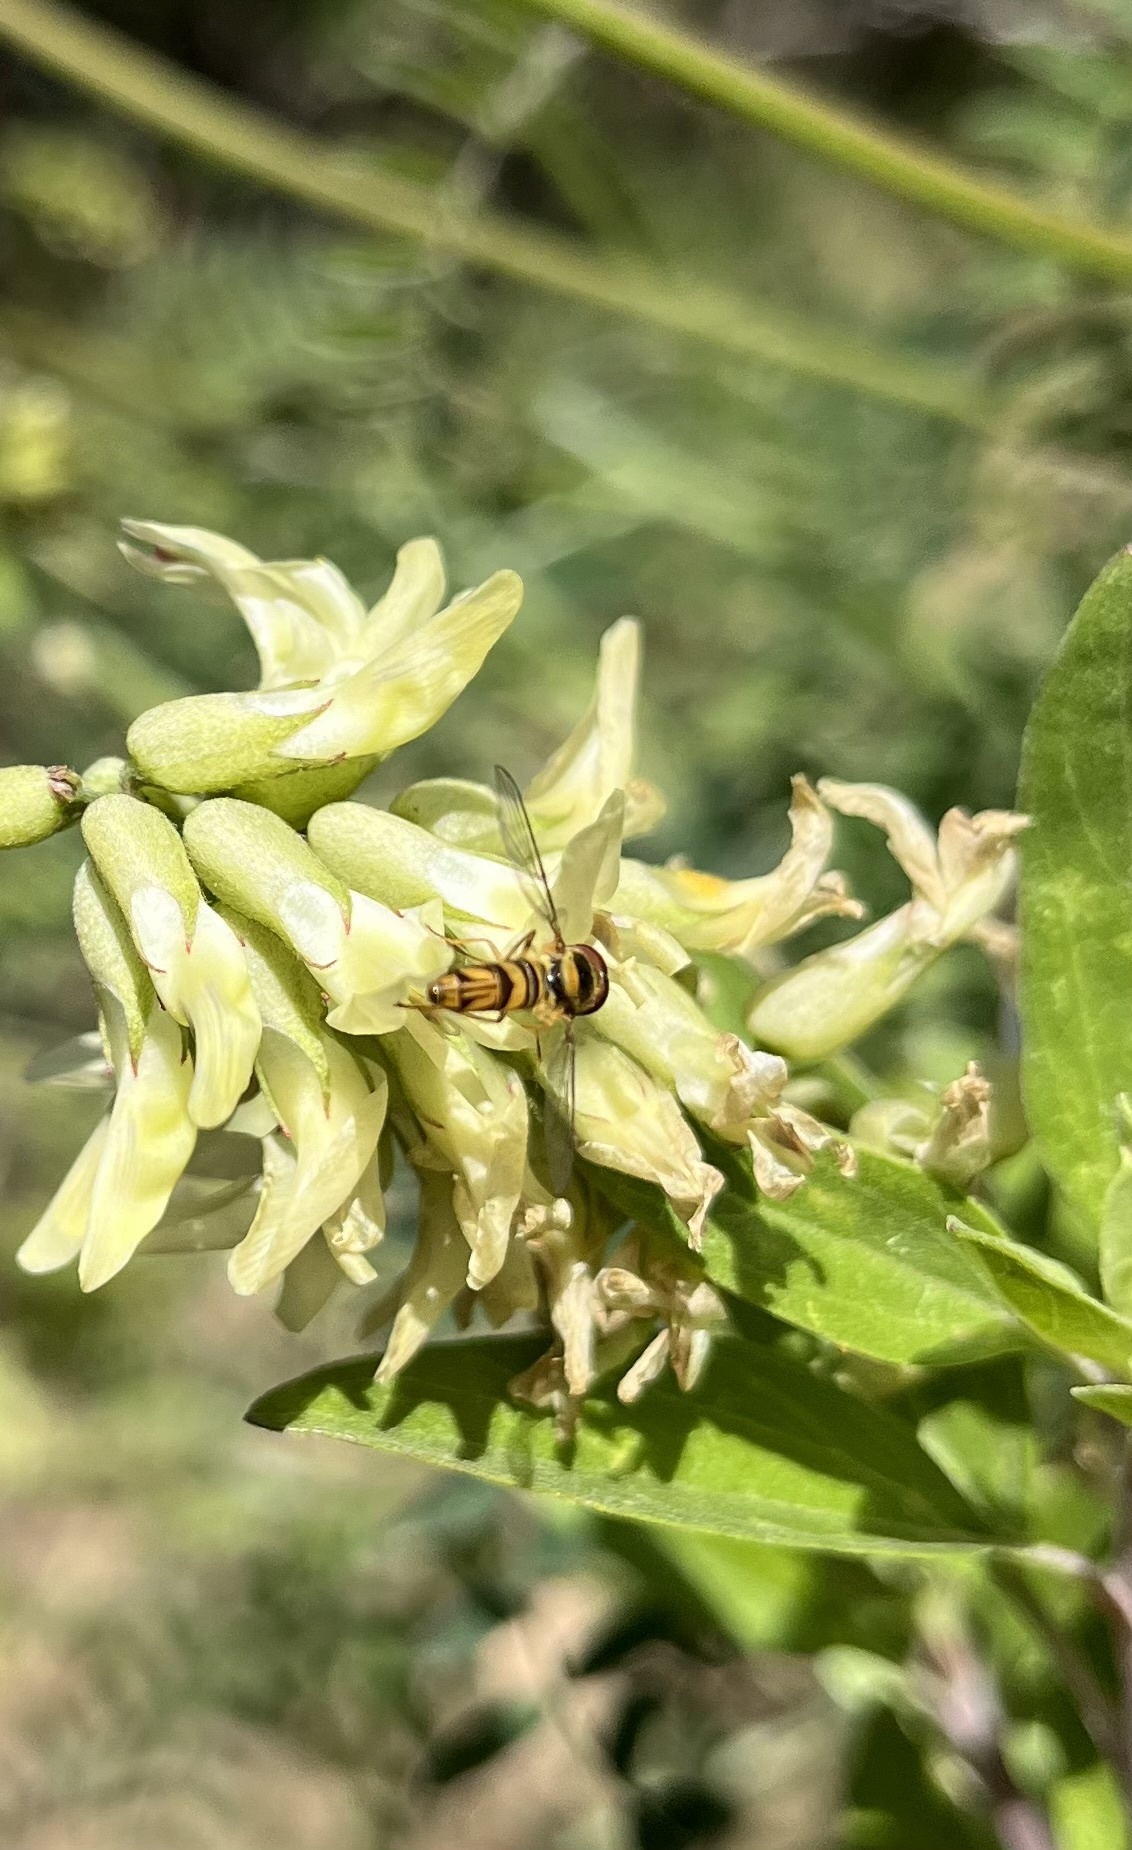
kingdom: Animalia
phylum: Arthropoda
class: Insecta
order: Diptera
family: Syrphidae
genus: Allograpta
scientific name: Allograpta obliqua
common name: Common oblique syrphid
